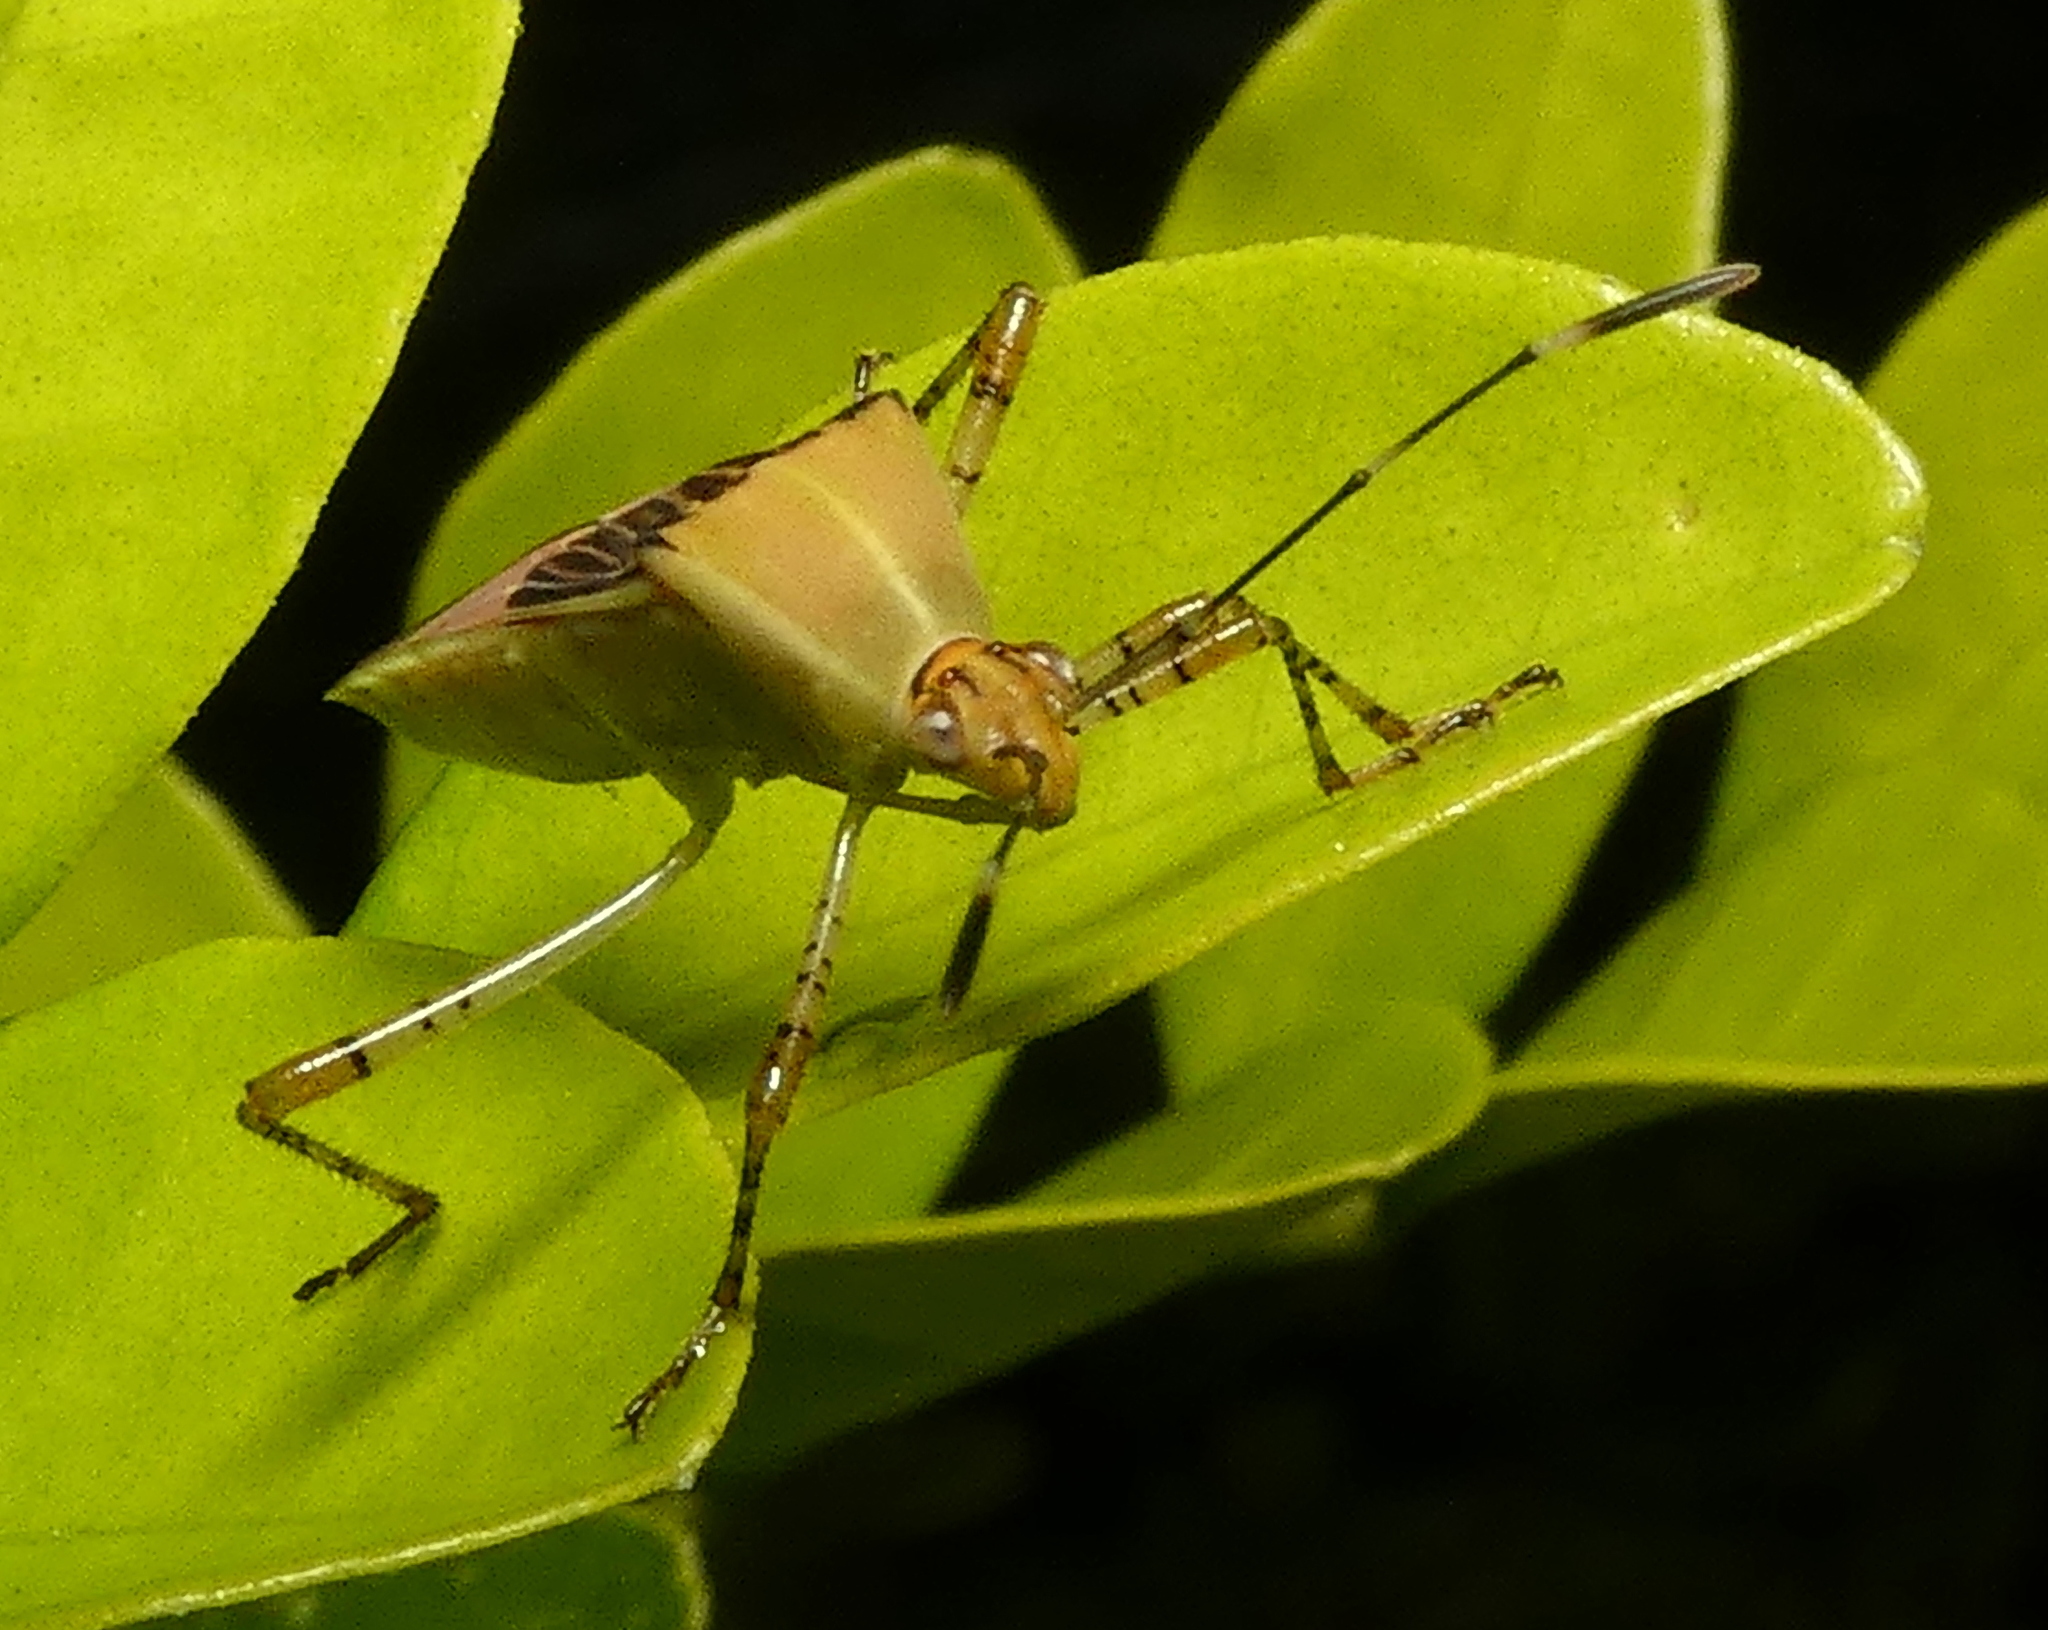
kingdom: Animalia
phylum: Arthropoda
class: Insecta
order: Hemiptera
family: Coreidae
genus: Hypselonotus
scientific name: Hypselonotus fulvus
